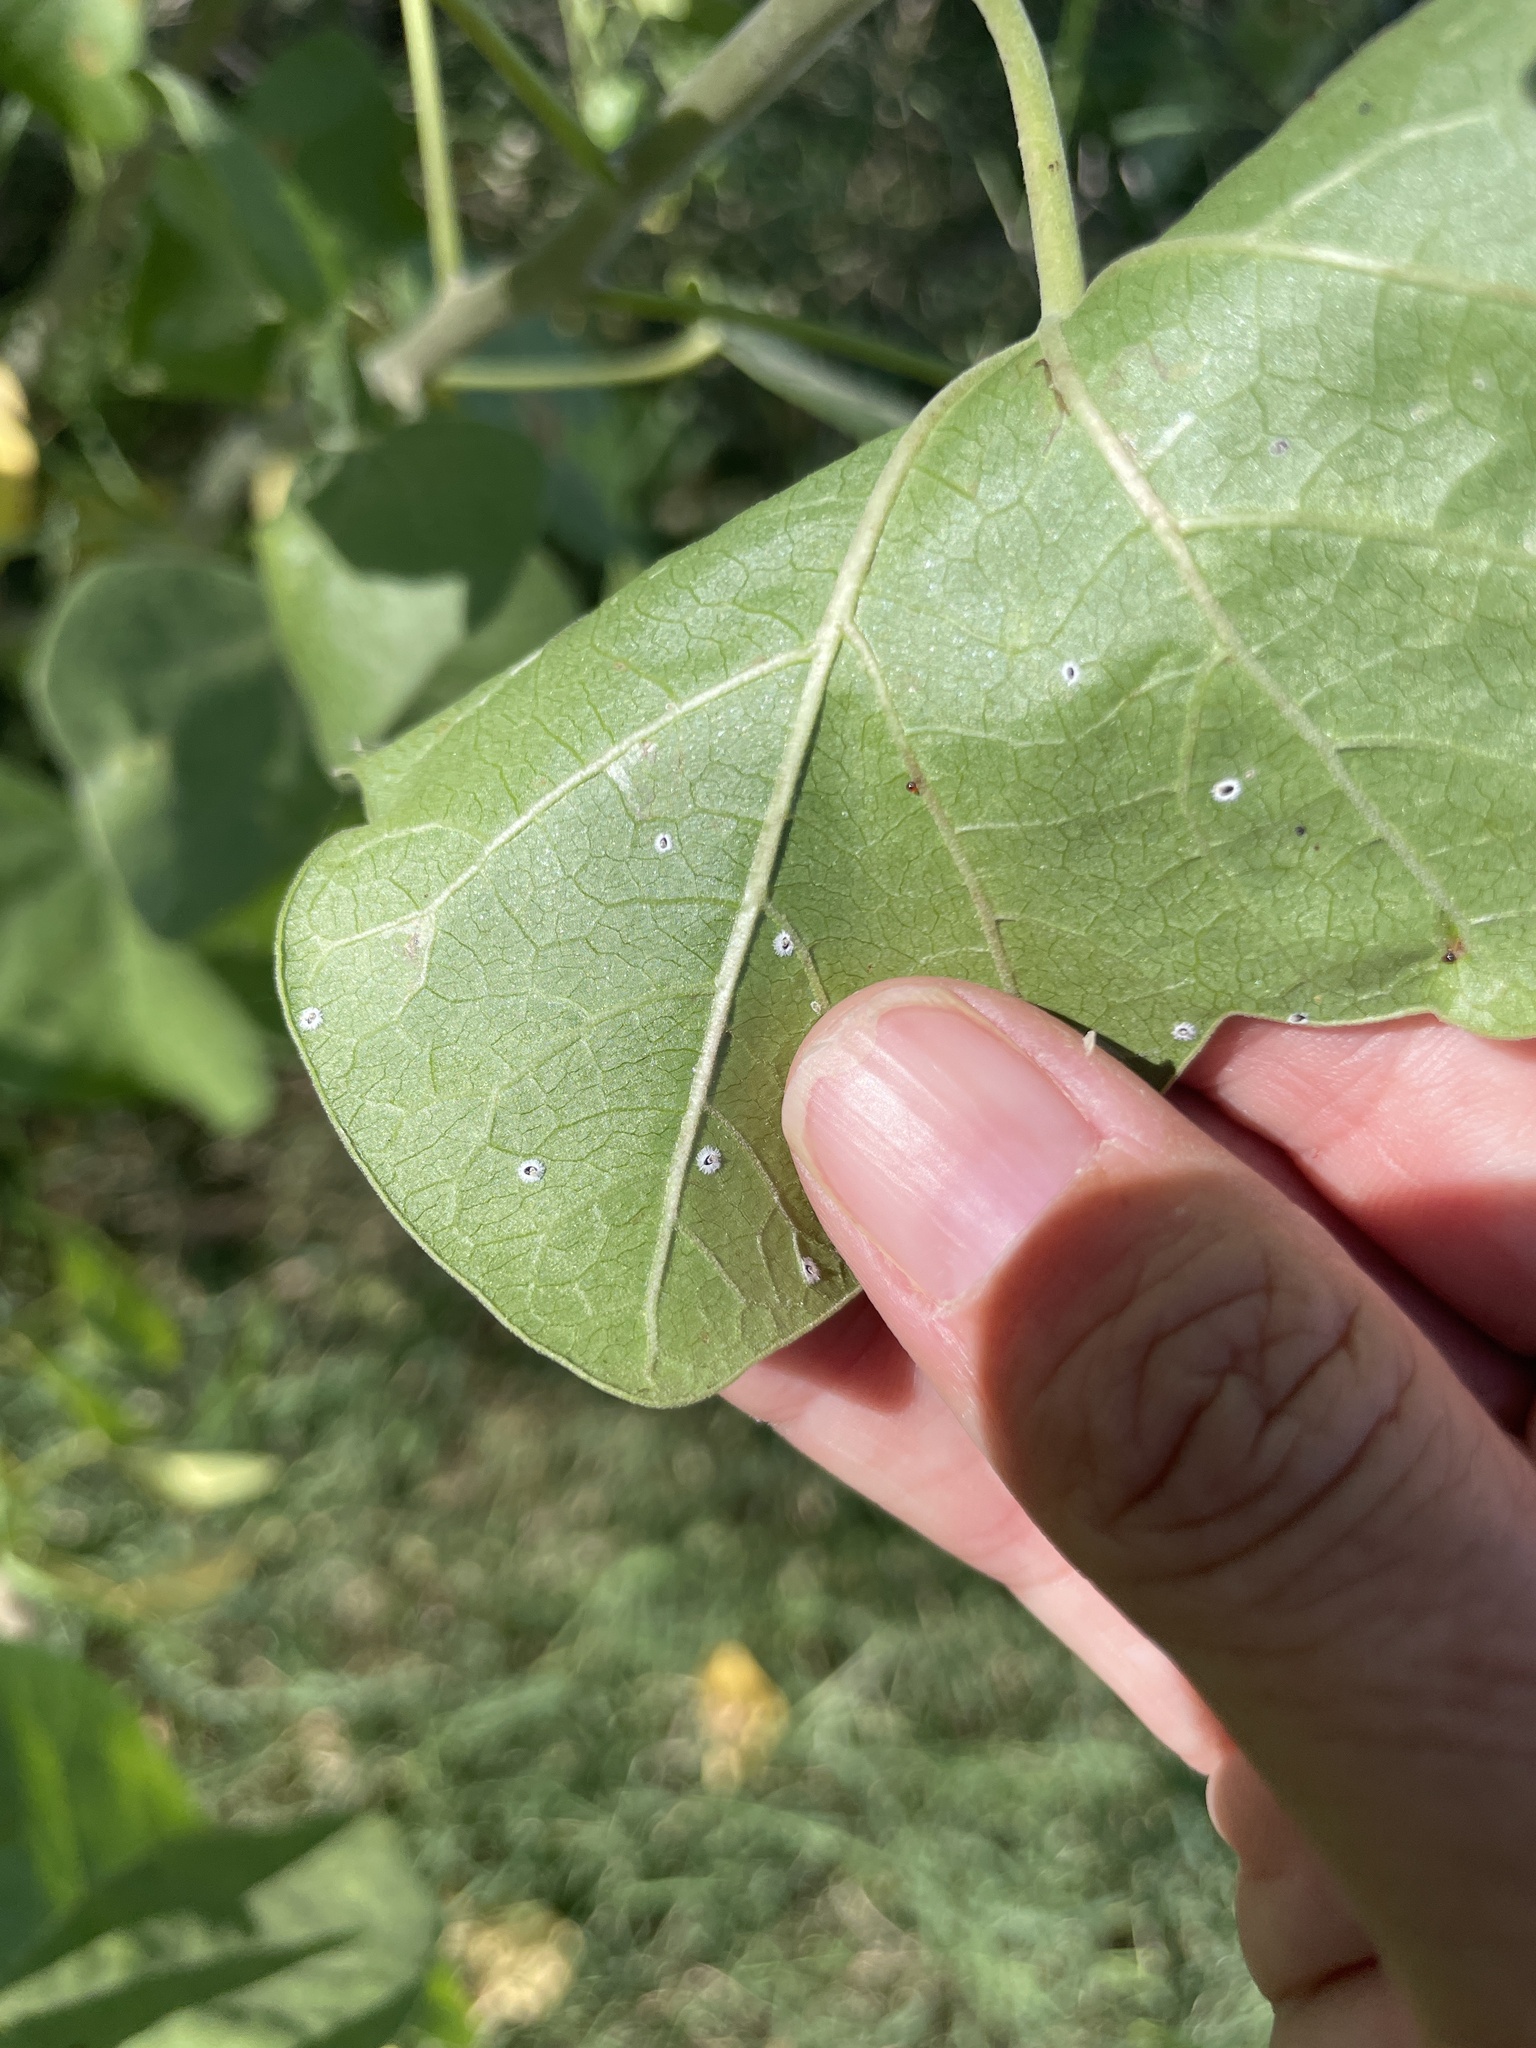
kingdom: Plantae
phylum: Tracheophyta
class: Magnoliopsida
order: Malpighiales
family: Euphorbiaceae
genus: Jatropha
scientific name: Jatropha cinerea
